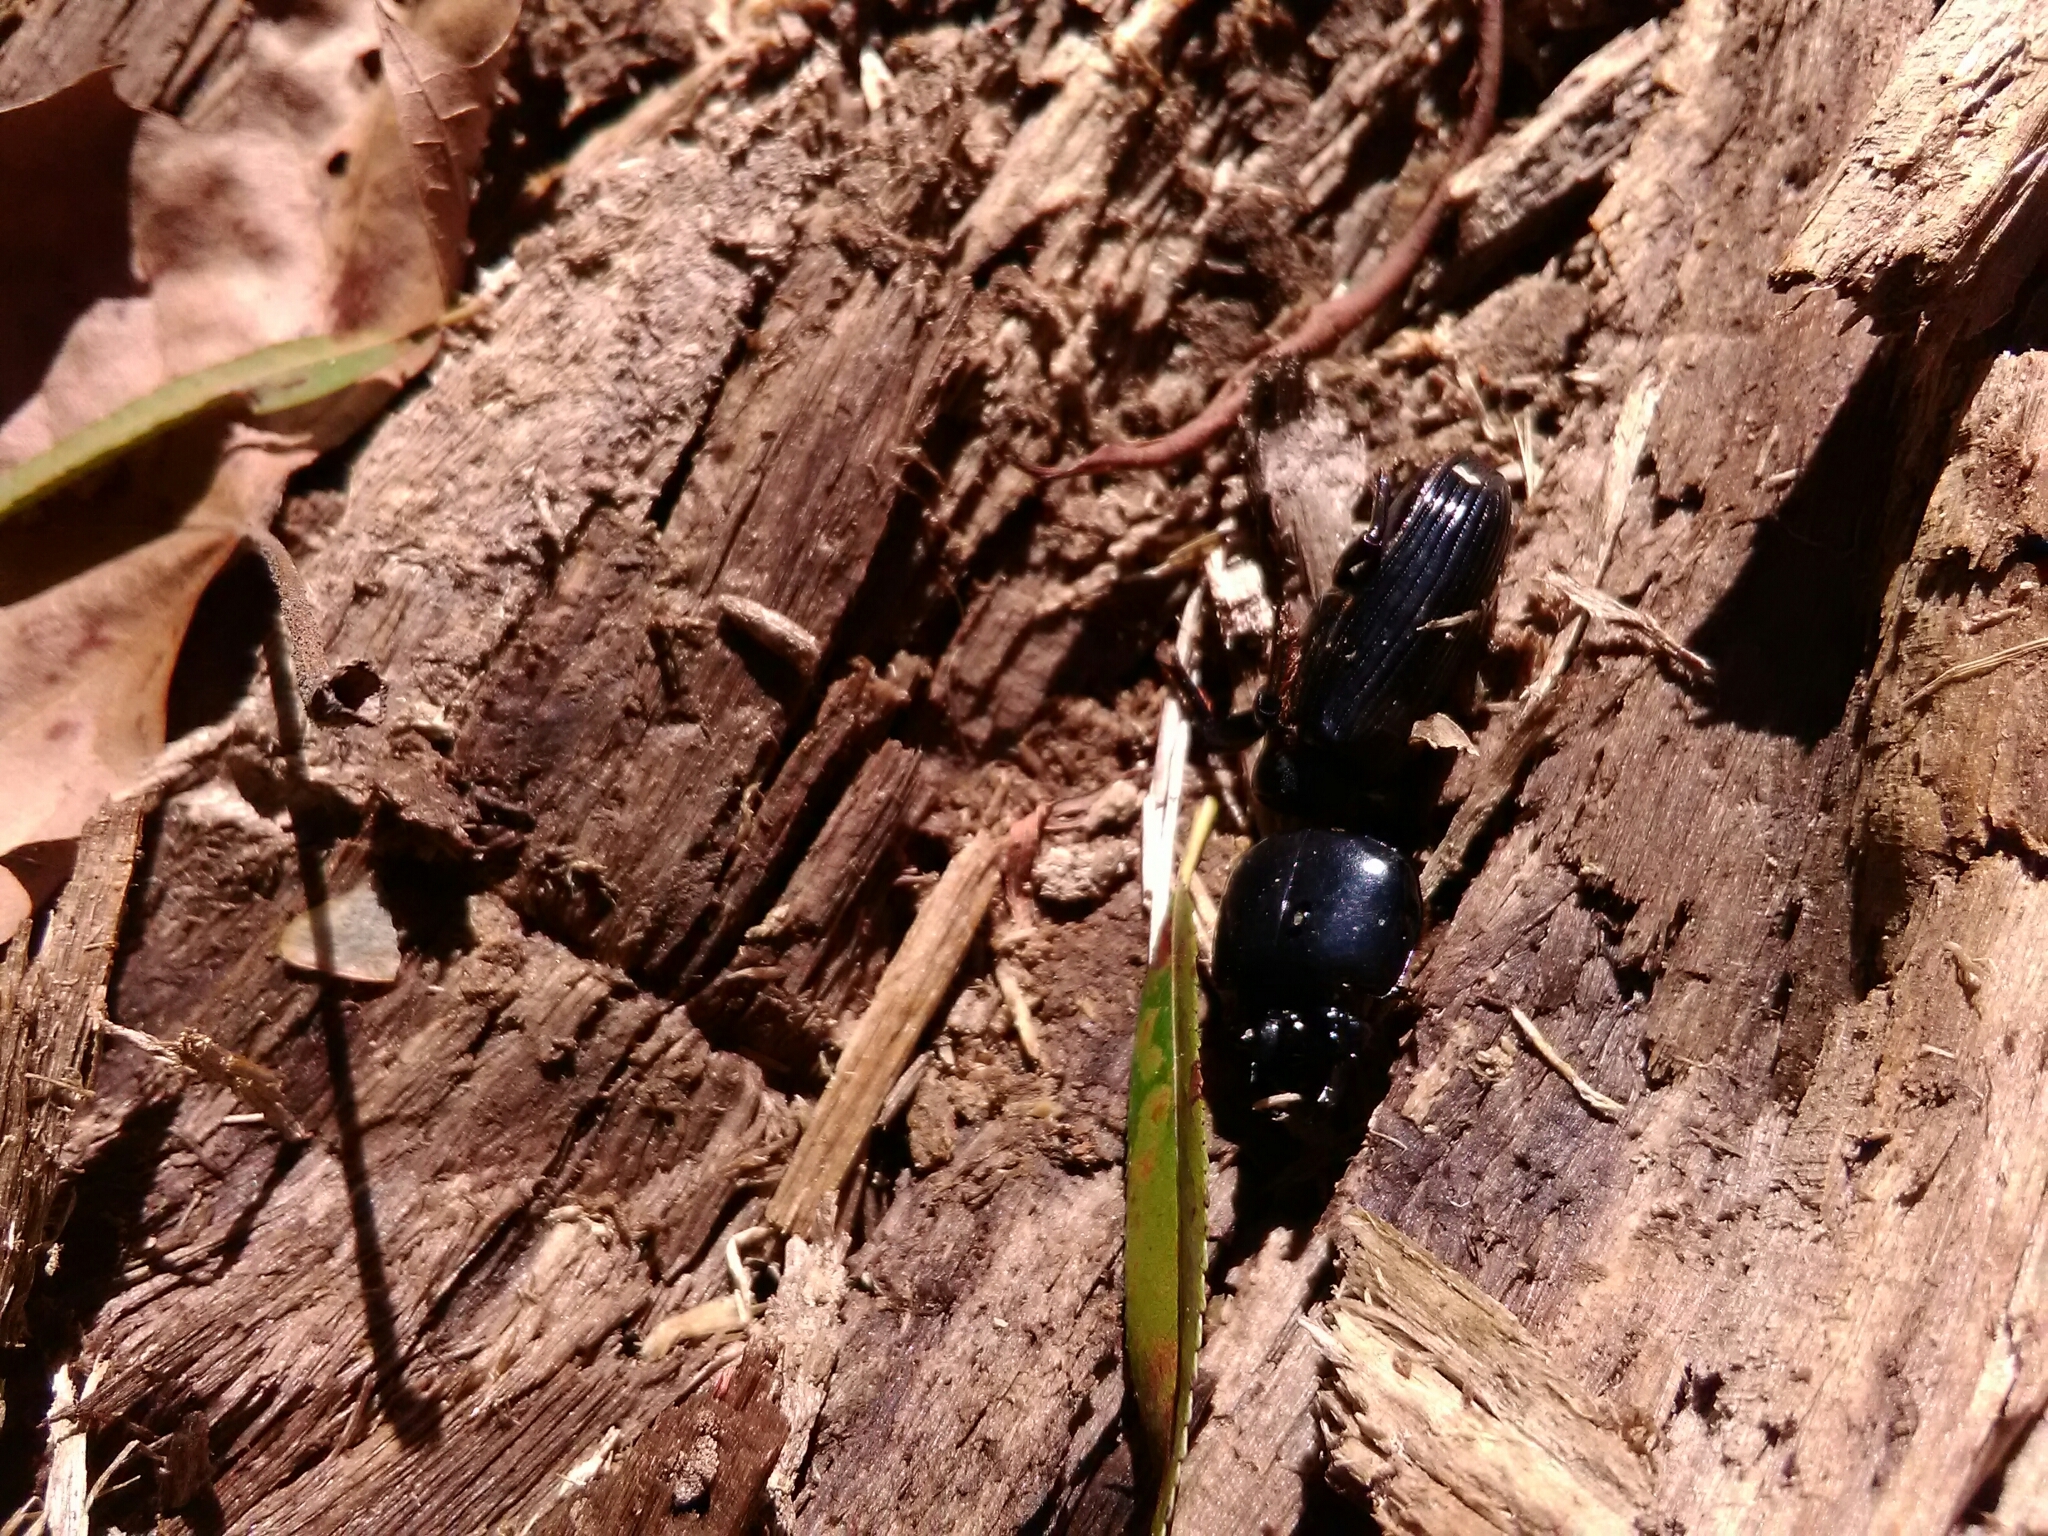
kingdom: Animalia
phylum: Arthropoda
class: Insecta
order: Coleoptera
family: Passalidae
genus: Odontotaenius
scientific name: Odontotaenius disjunctus
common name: Patent leather beetle
